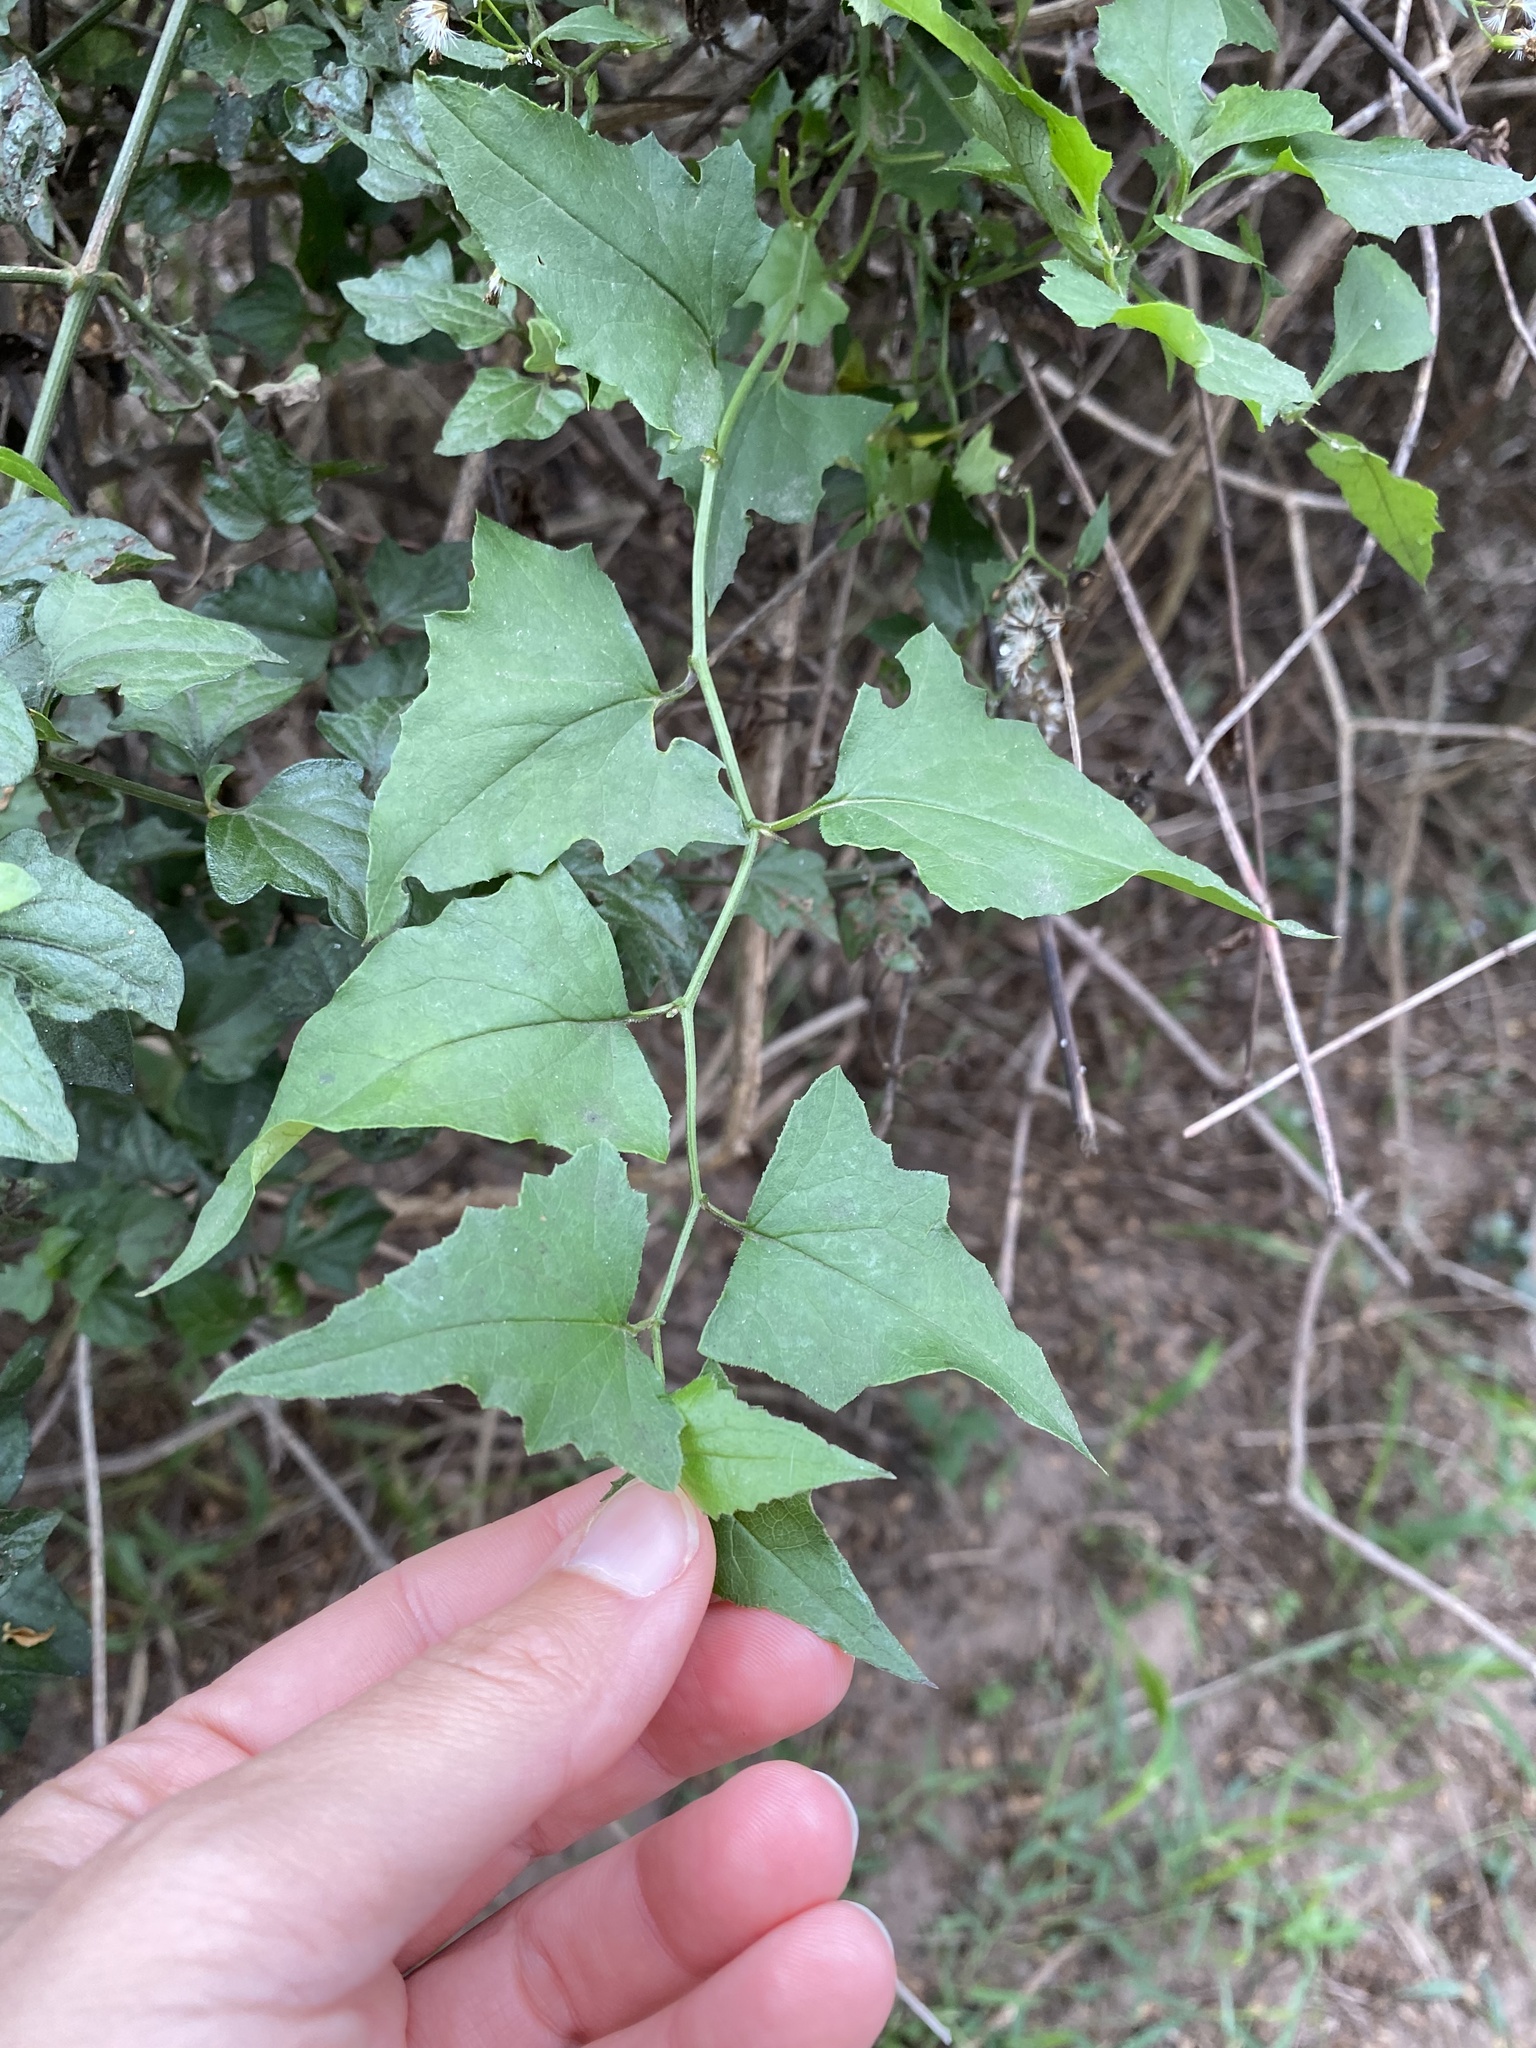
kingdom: Plantae
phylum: Tracheophyta
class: Magnoliopsida
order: Asterales
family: Asteraceae
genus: Senecio
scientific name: Senecio deltoideus
